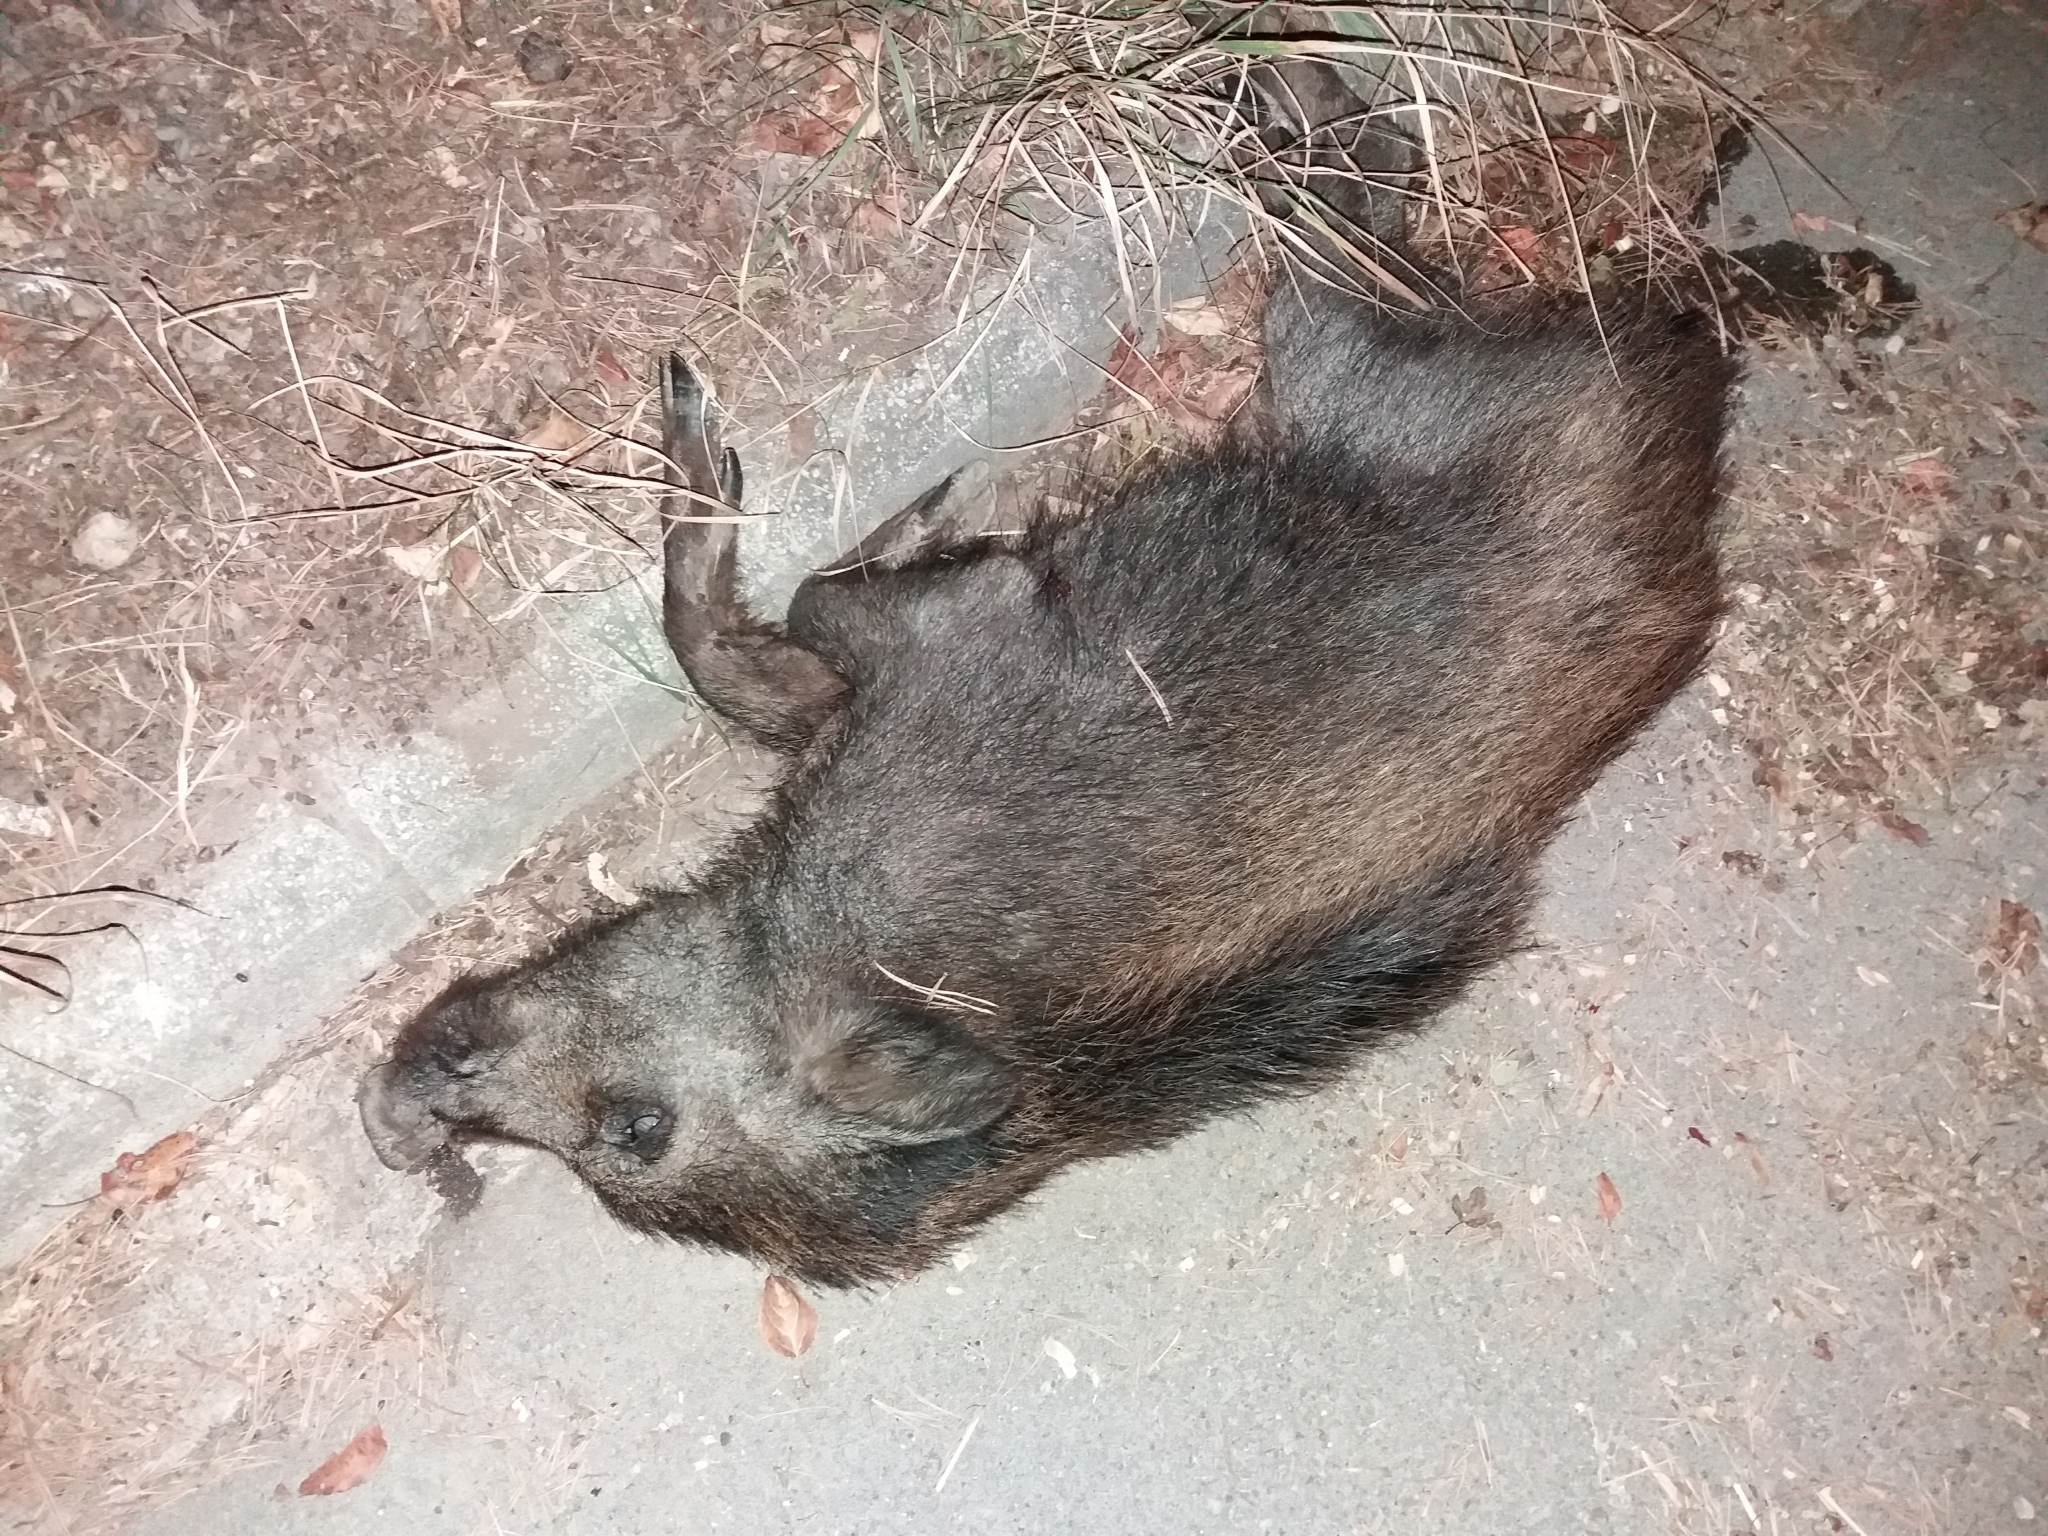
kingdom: Animalia
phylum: Chordata
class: Mammalia
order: Artiodactyla
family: Suidae
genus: Sus
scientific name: Sus scrofa
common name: Wild boar
